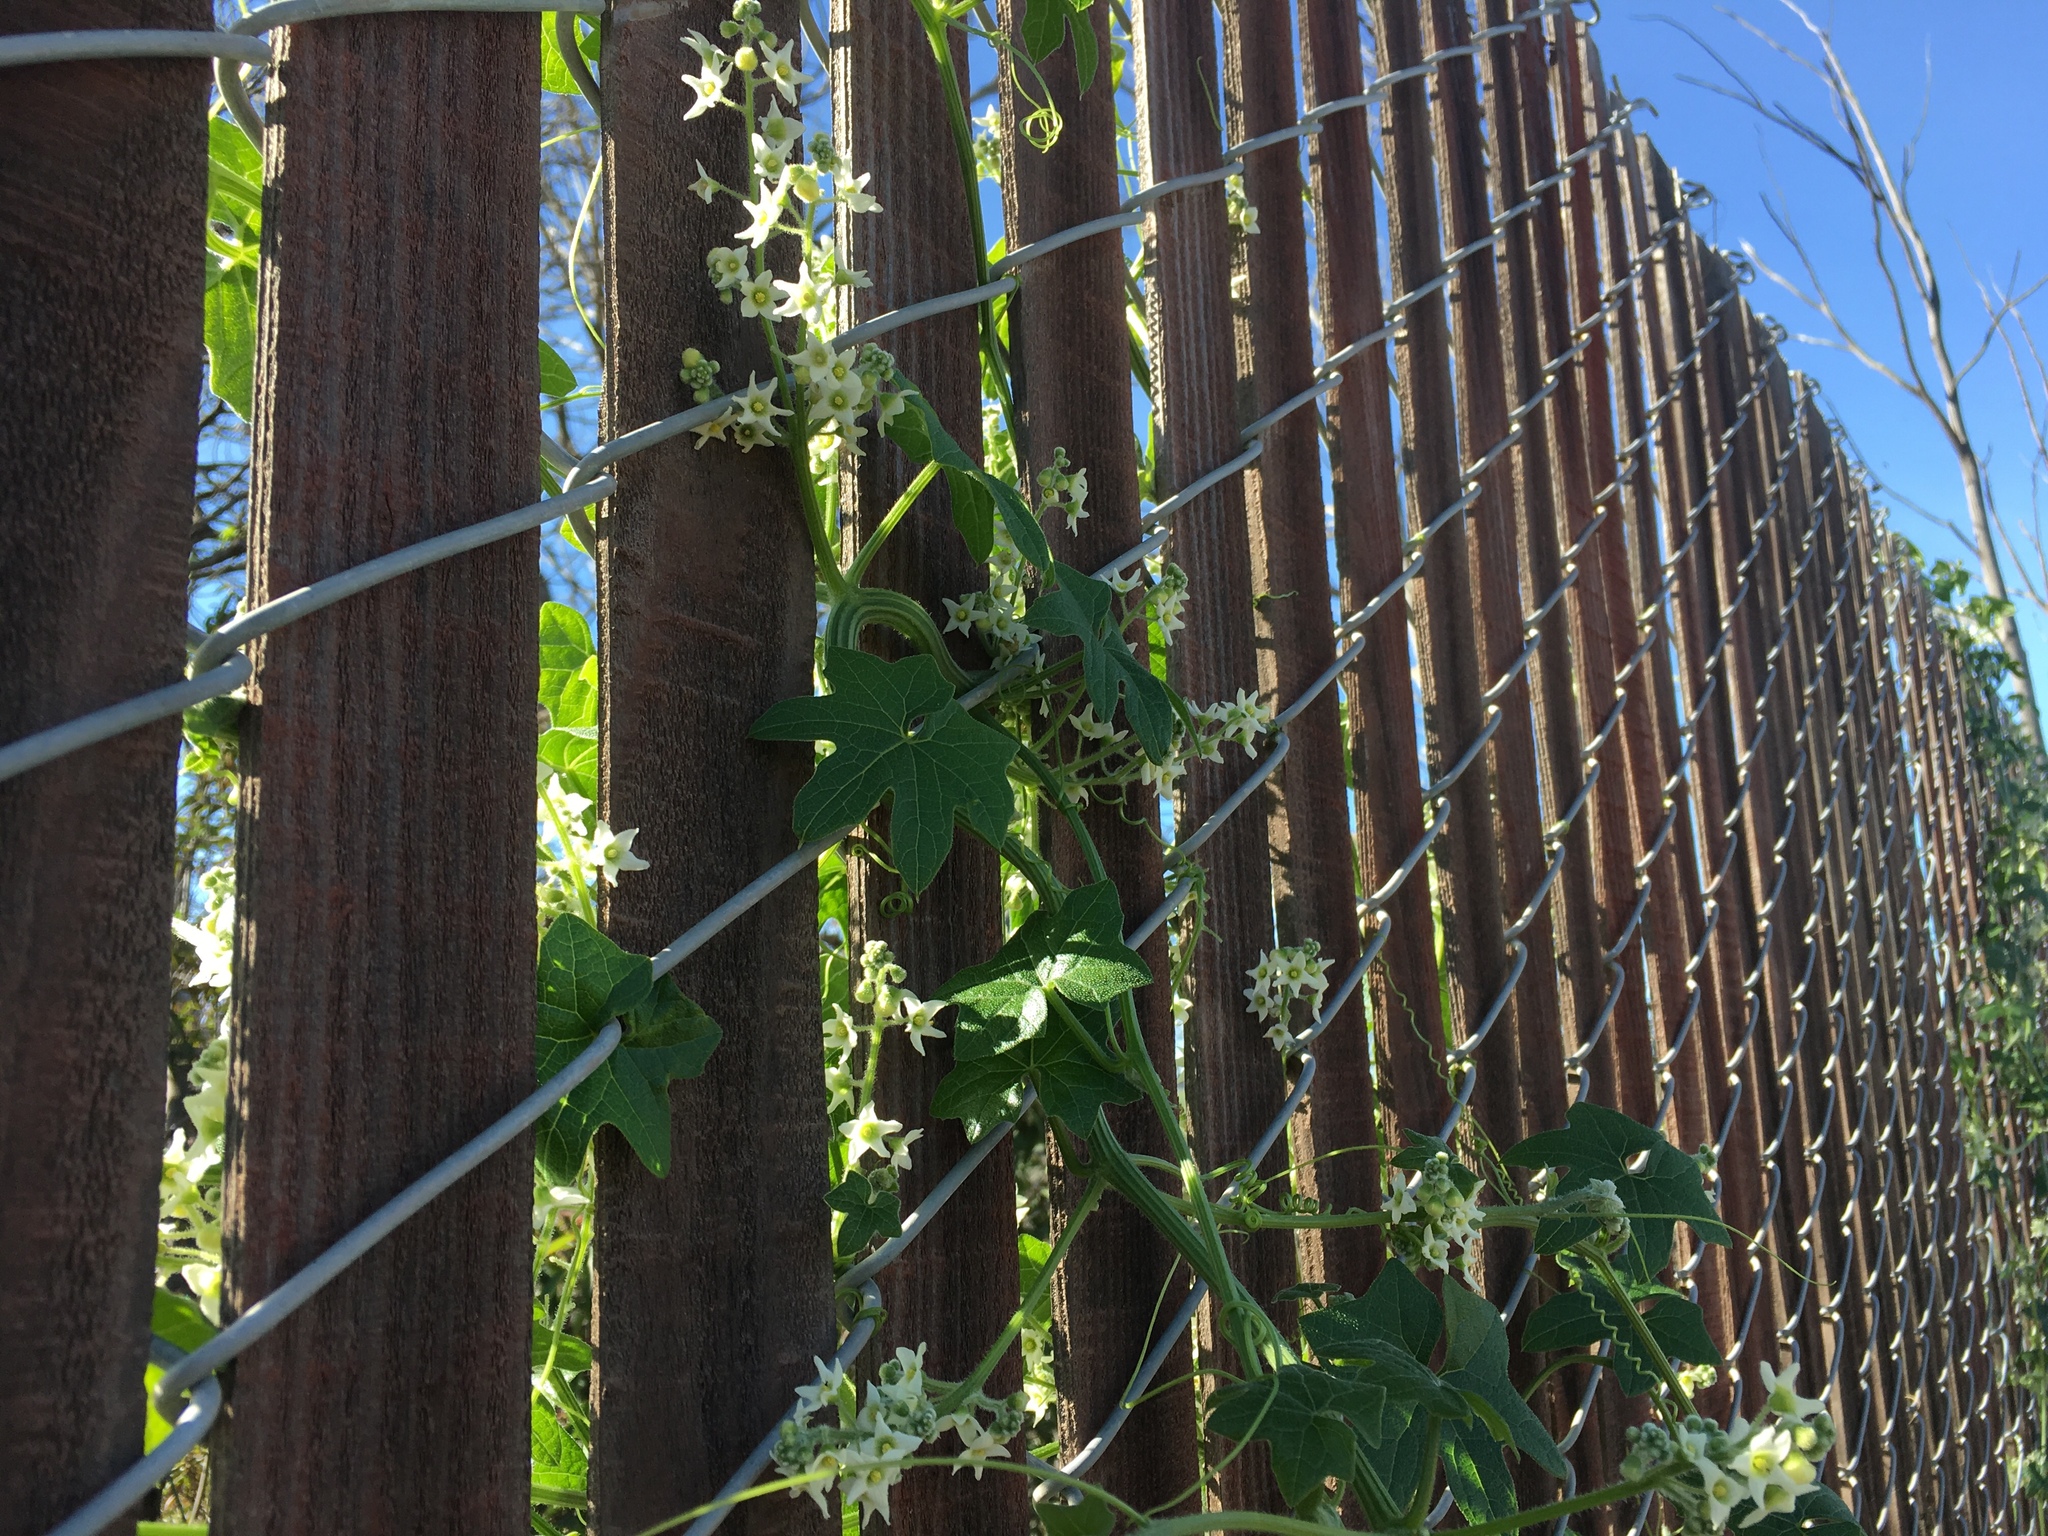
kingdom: Plantae
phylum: Tracheophyta
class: Magnoliopsida
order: Cucurbitales
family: Cucurbitaceae
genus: Marah
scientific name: Marah macrocarpa
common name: Cucamonga manroot
